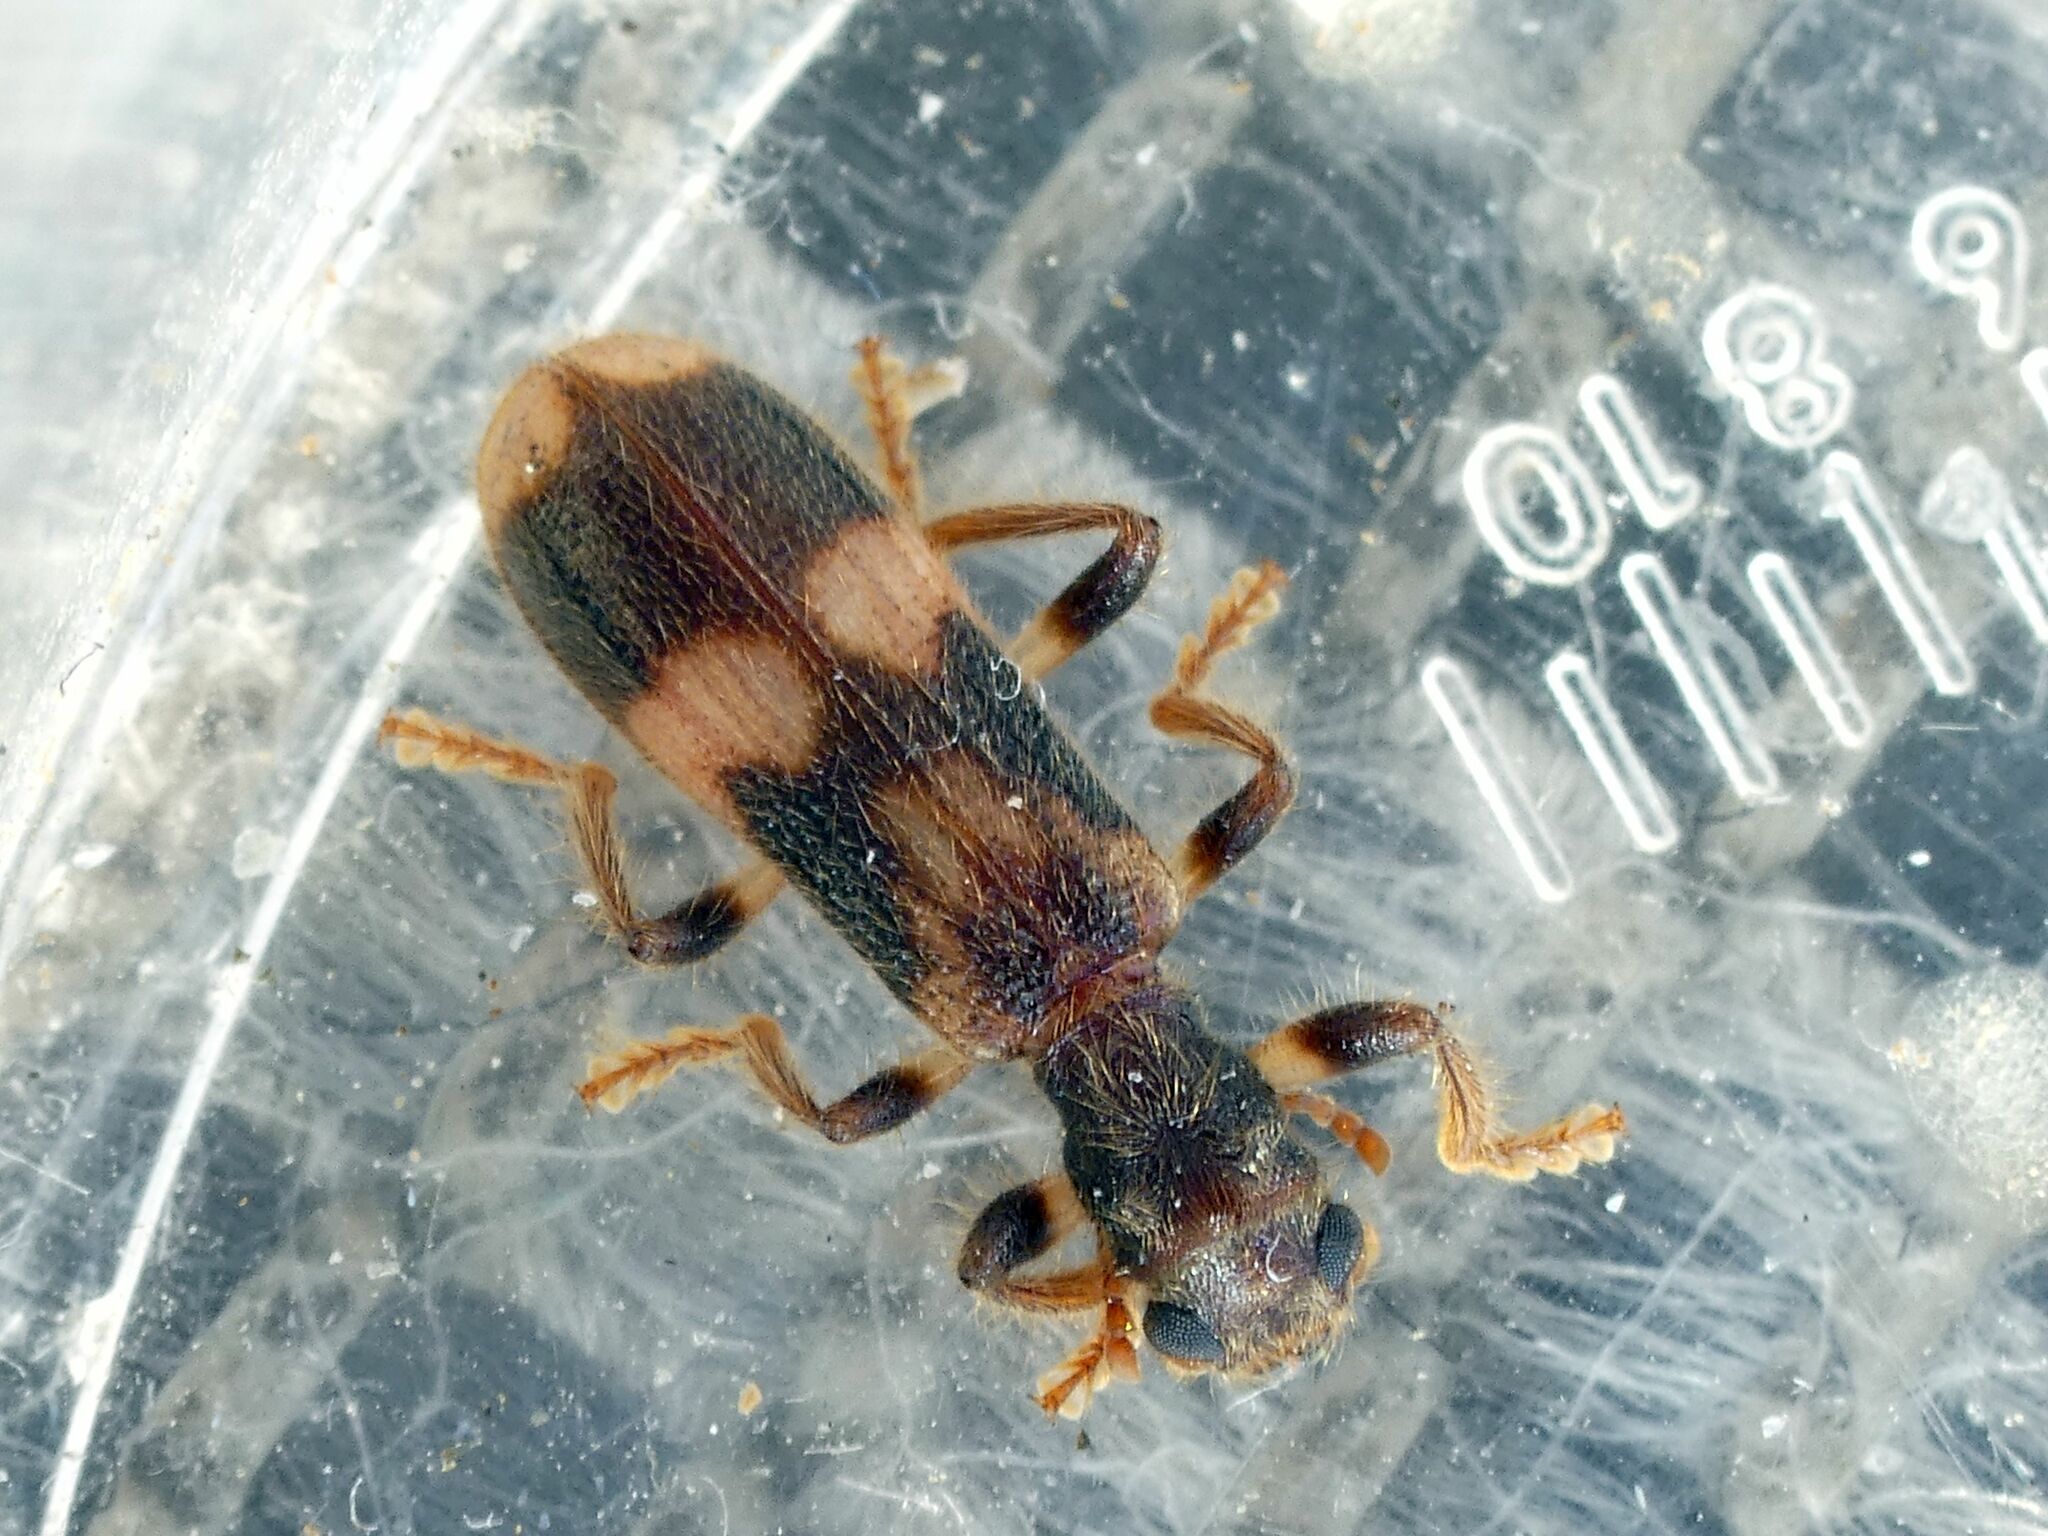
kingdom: Animalia
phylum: Arthropoda
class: Insecta
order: Coleoptera
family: Cleridae
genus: Opilo
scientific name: Opilo mollis
